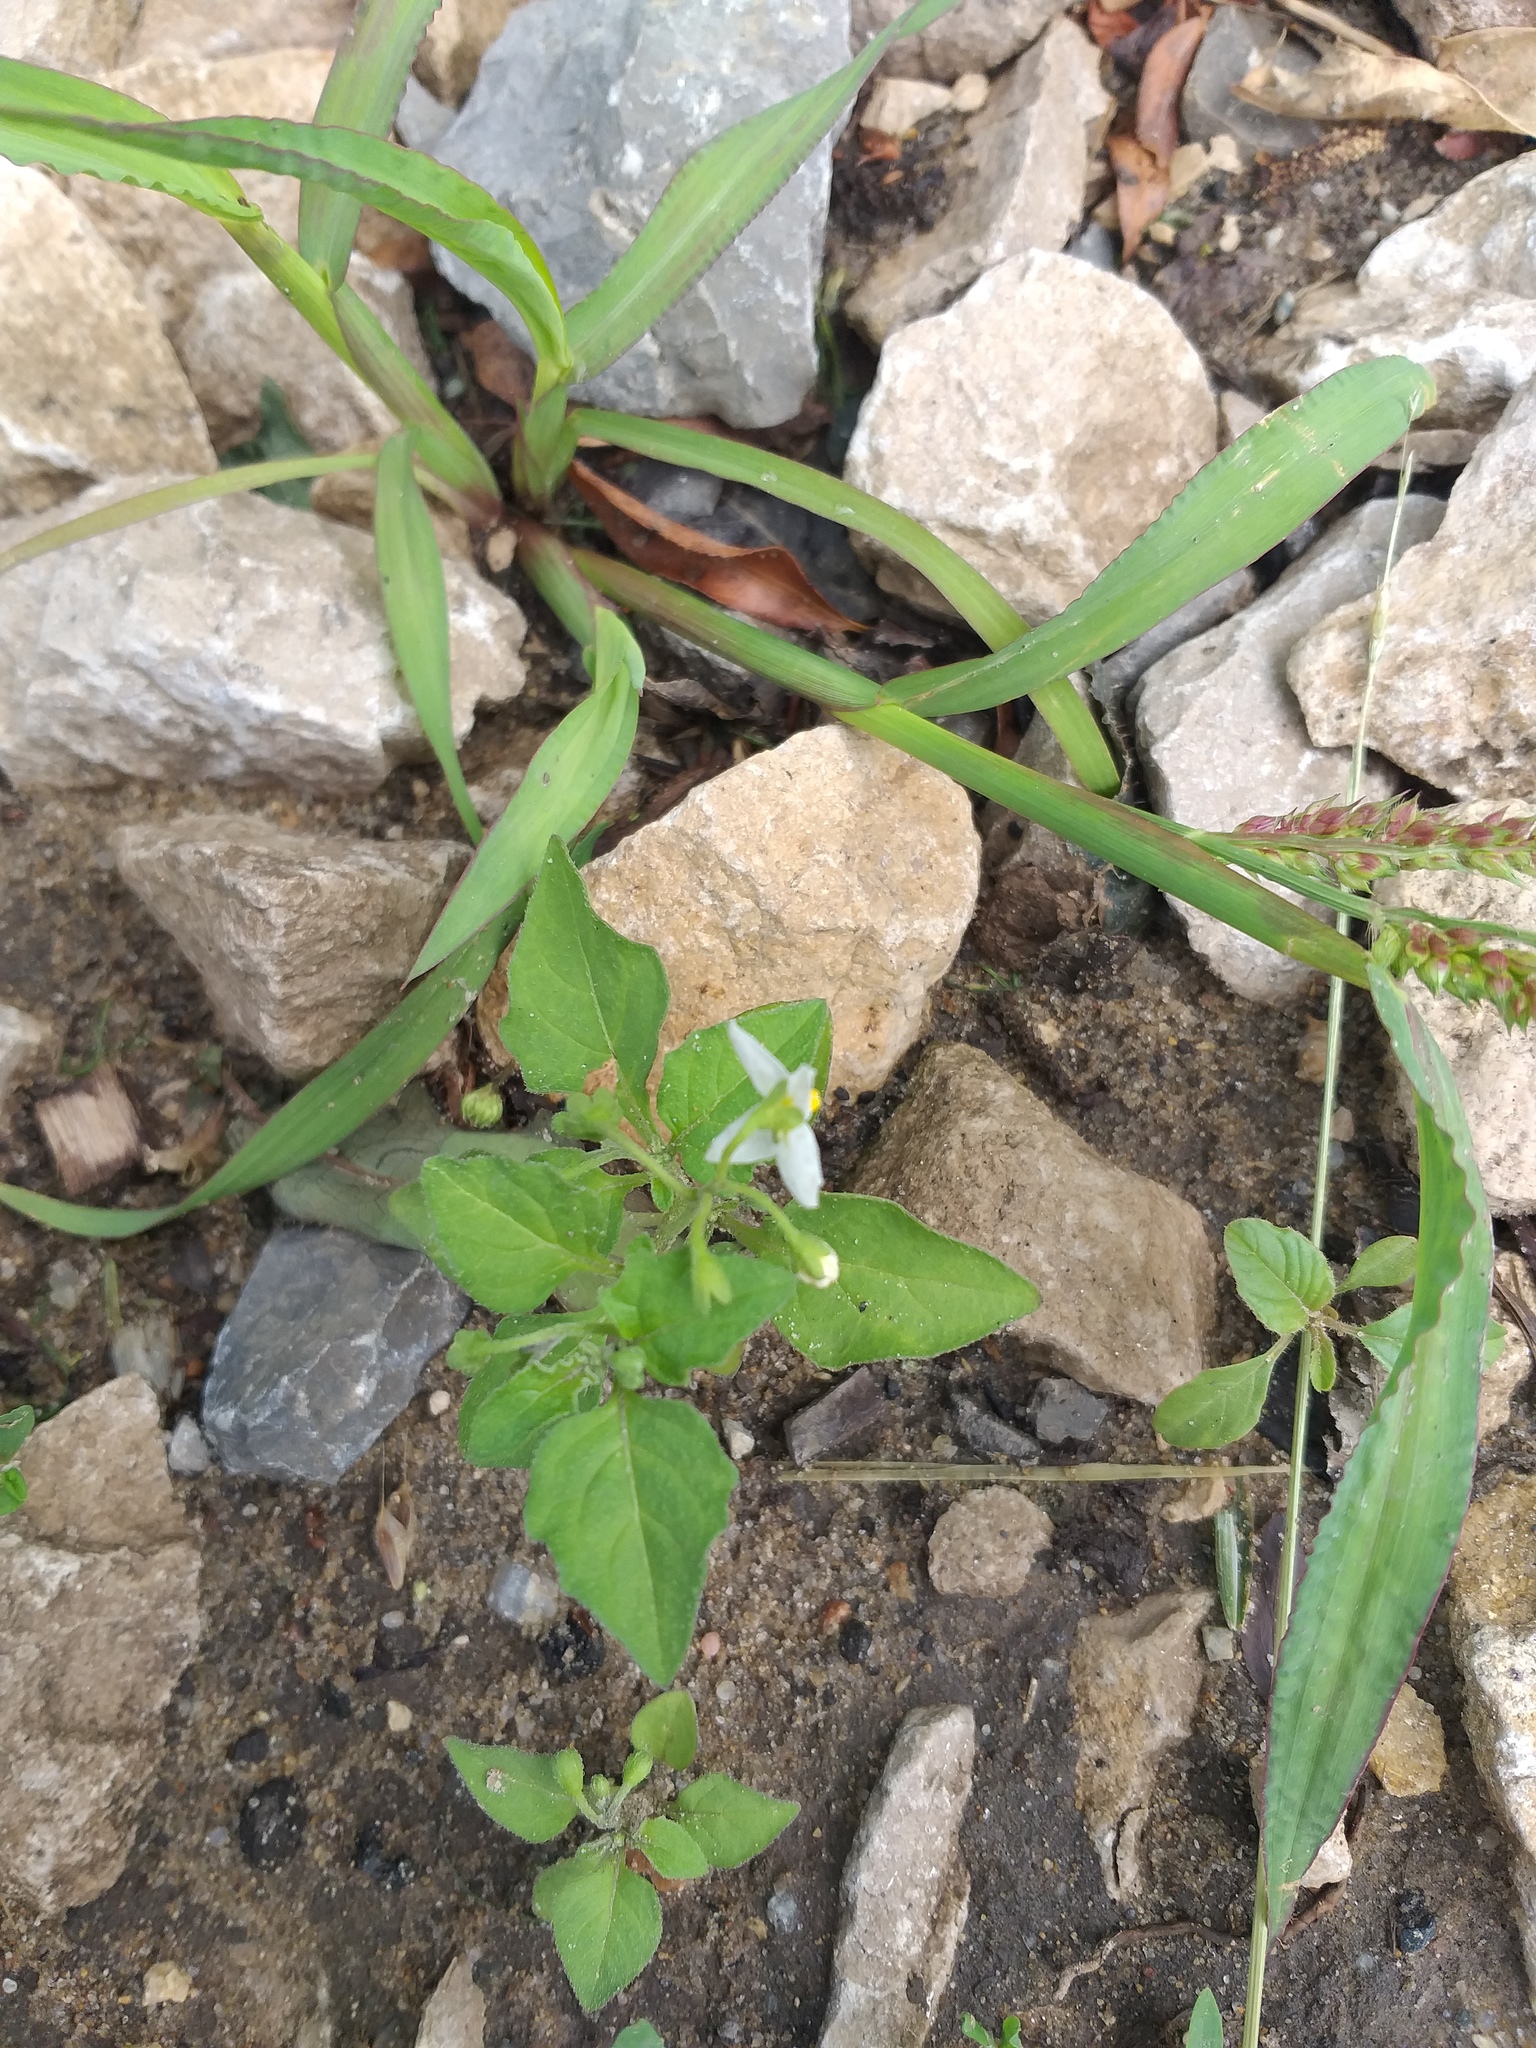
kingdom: Plantae
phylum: Tracheophyta
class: Magnoliopsida
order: Solanales
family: Solanaceae
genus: Solanum
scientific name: Solanum nigrum
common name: Black nightshade
